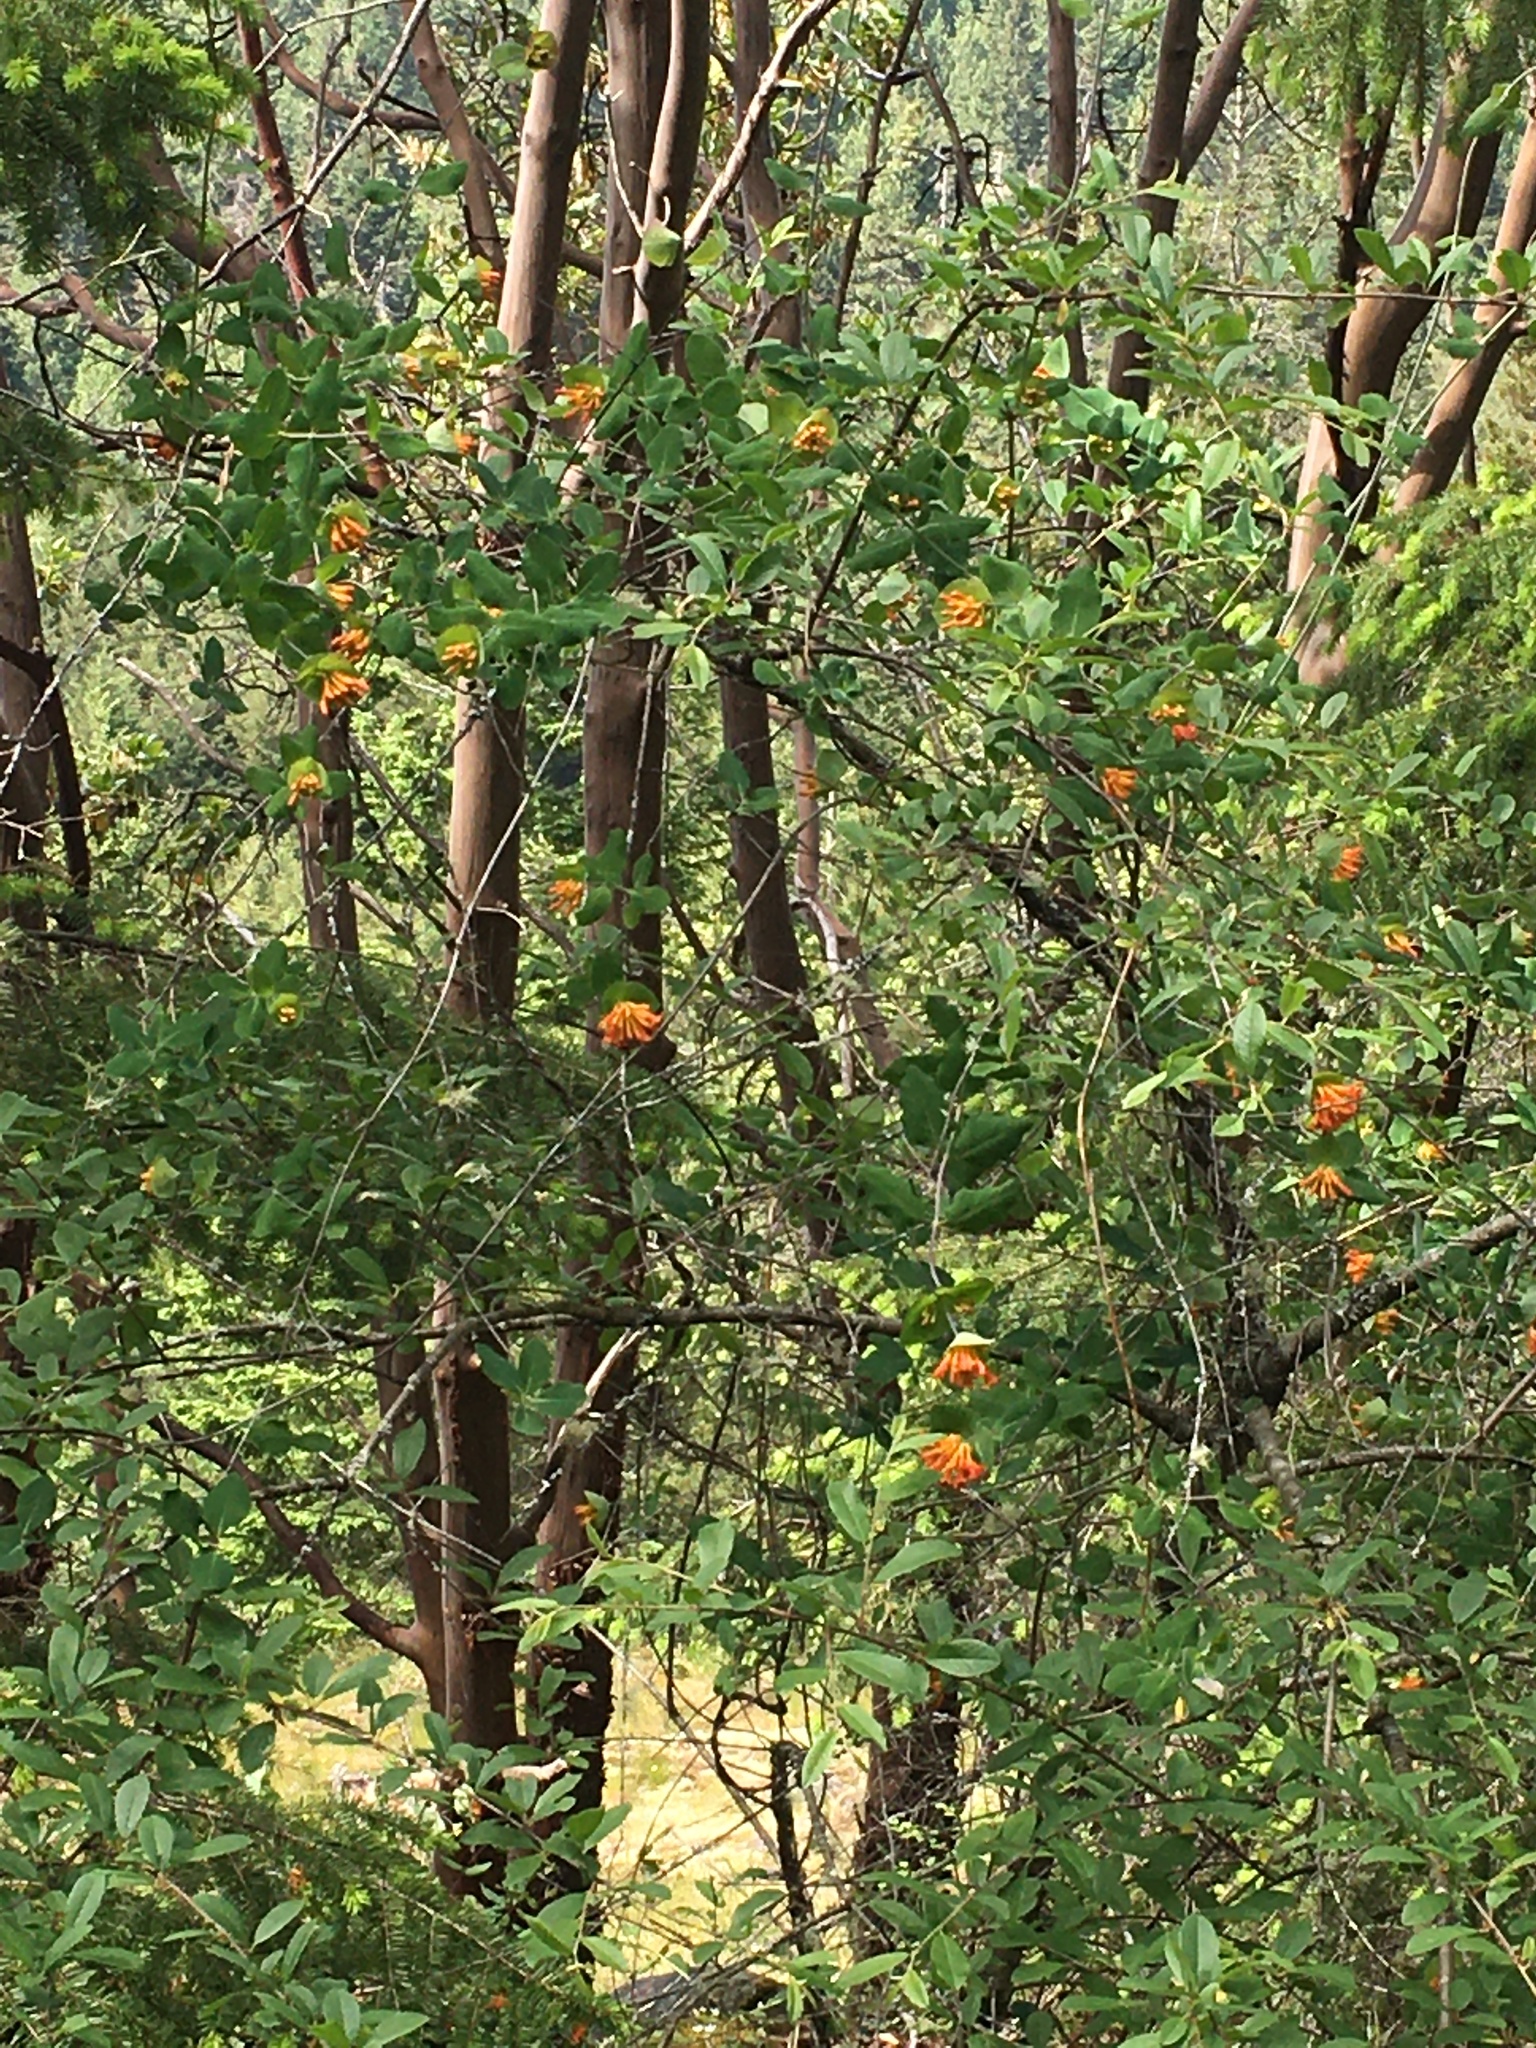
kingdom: Plantae
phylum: Tracheophyta
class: Magnoliopsida
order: Dipsacales
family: Caprifoliaceae
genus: Lonicera
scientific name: Lonicera ciliosa
